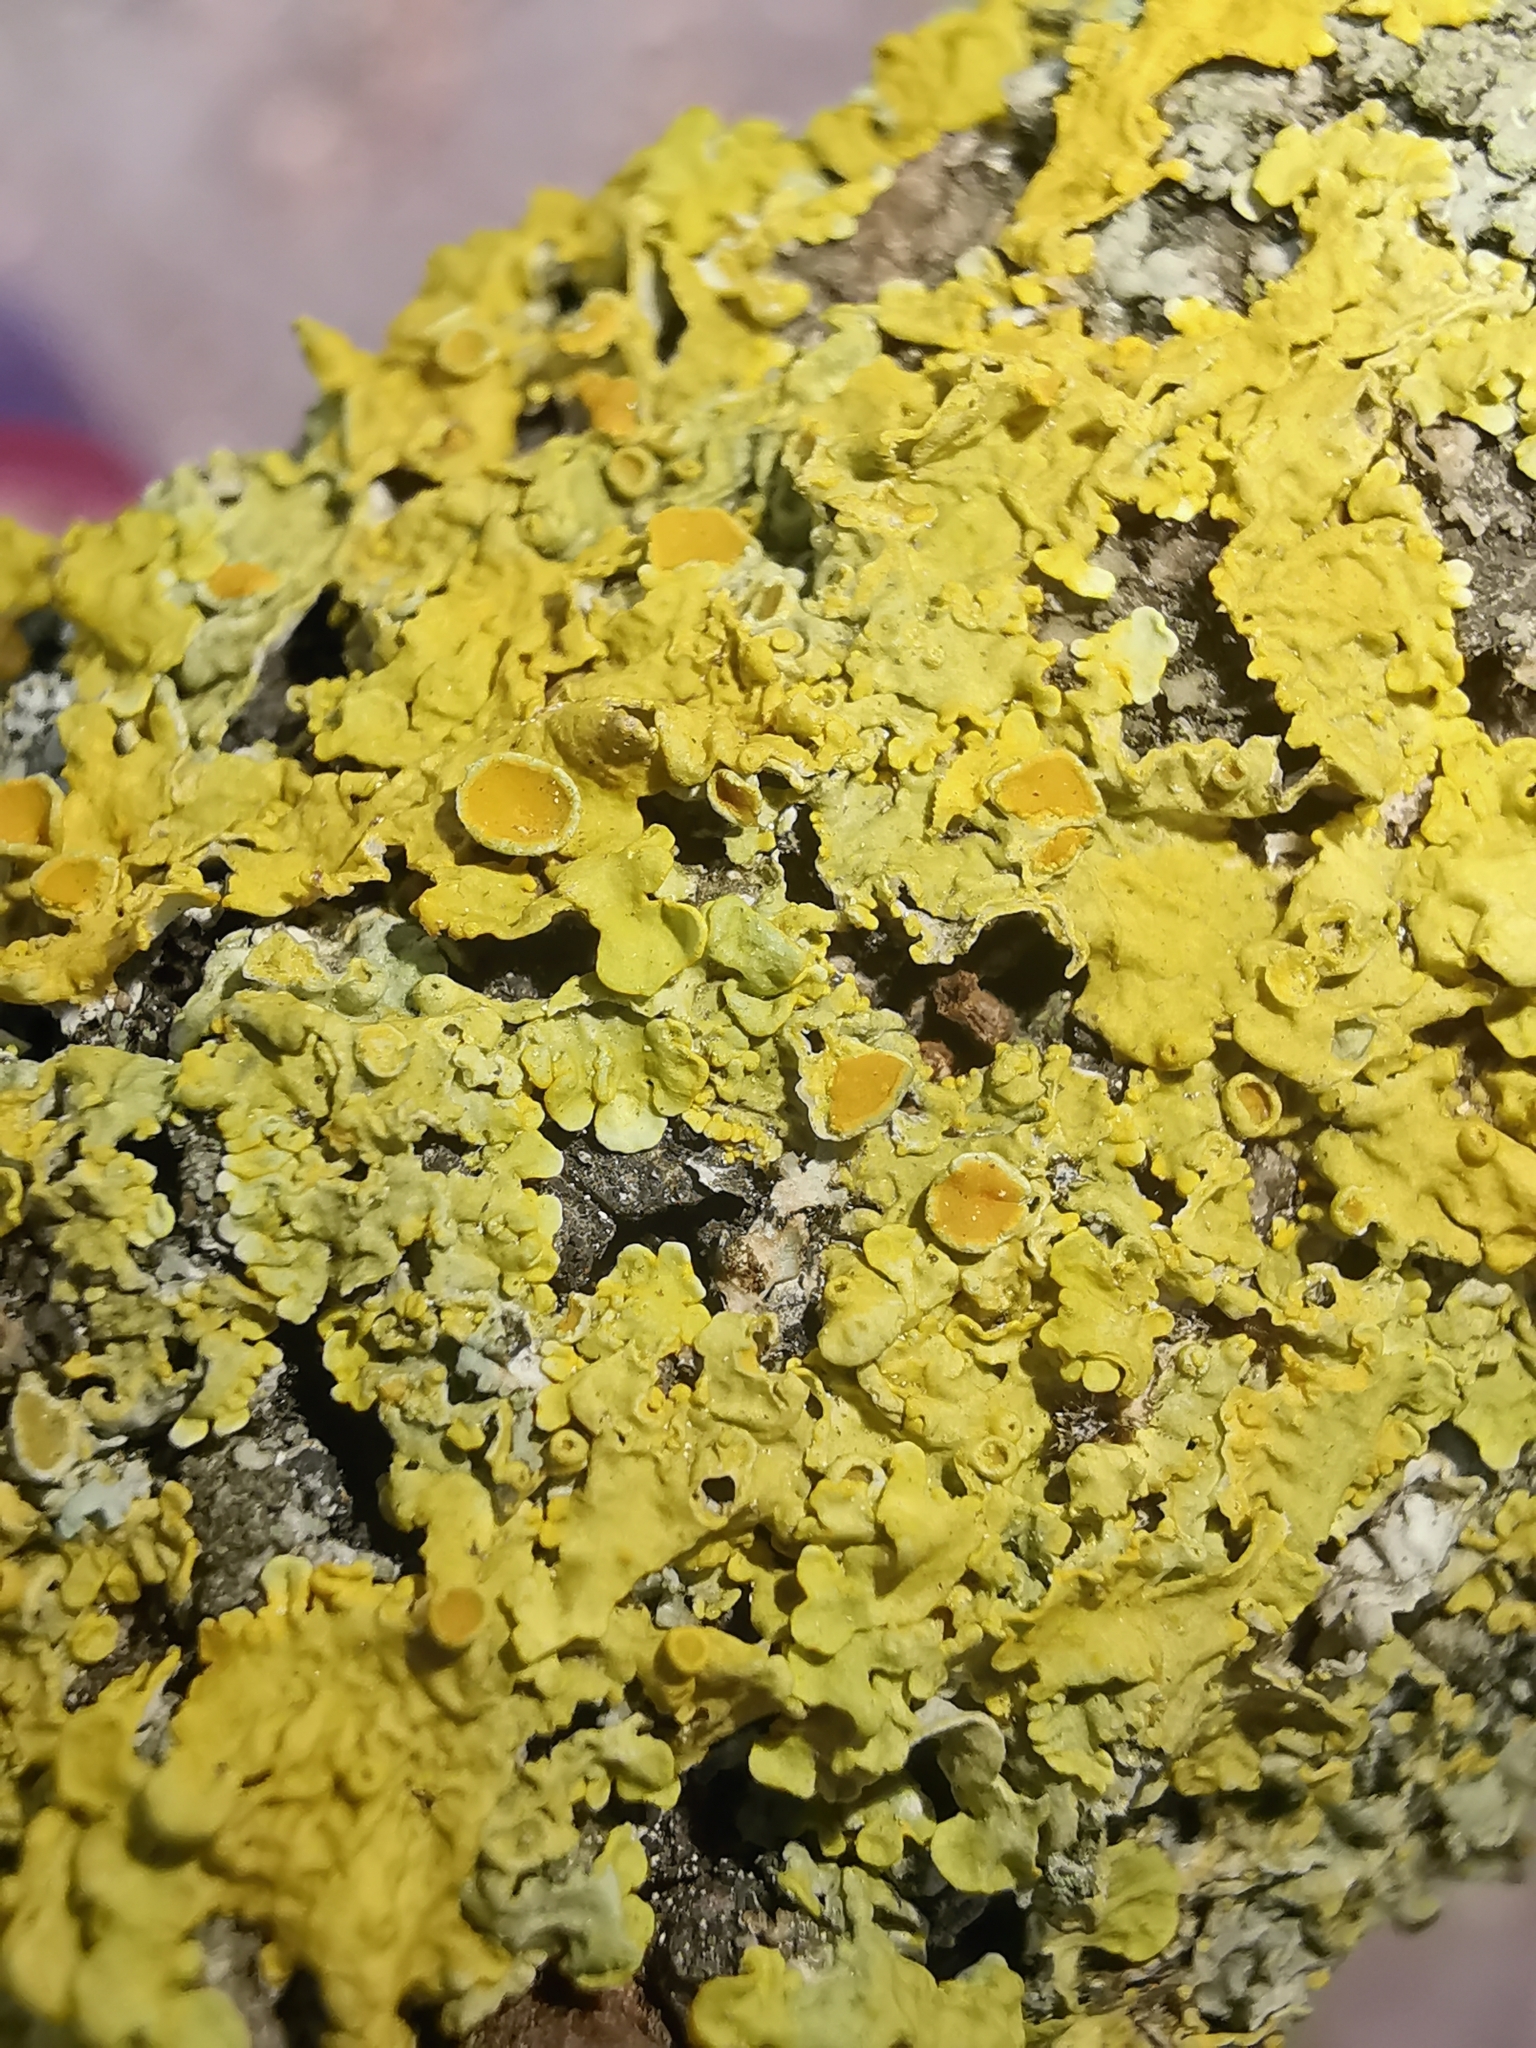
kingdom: Fungi
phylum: Ascomycota
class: Lecanoromycetes
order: Teloschistales
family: Teloschistaceae
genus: Xanthoria
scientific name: Xanthoria parietina
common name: Common orange lichen
